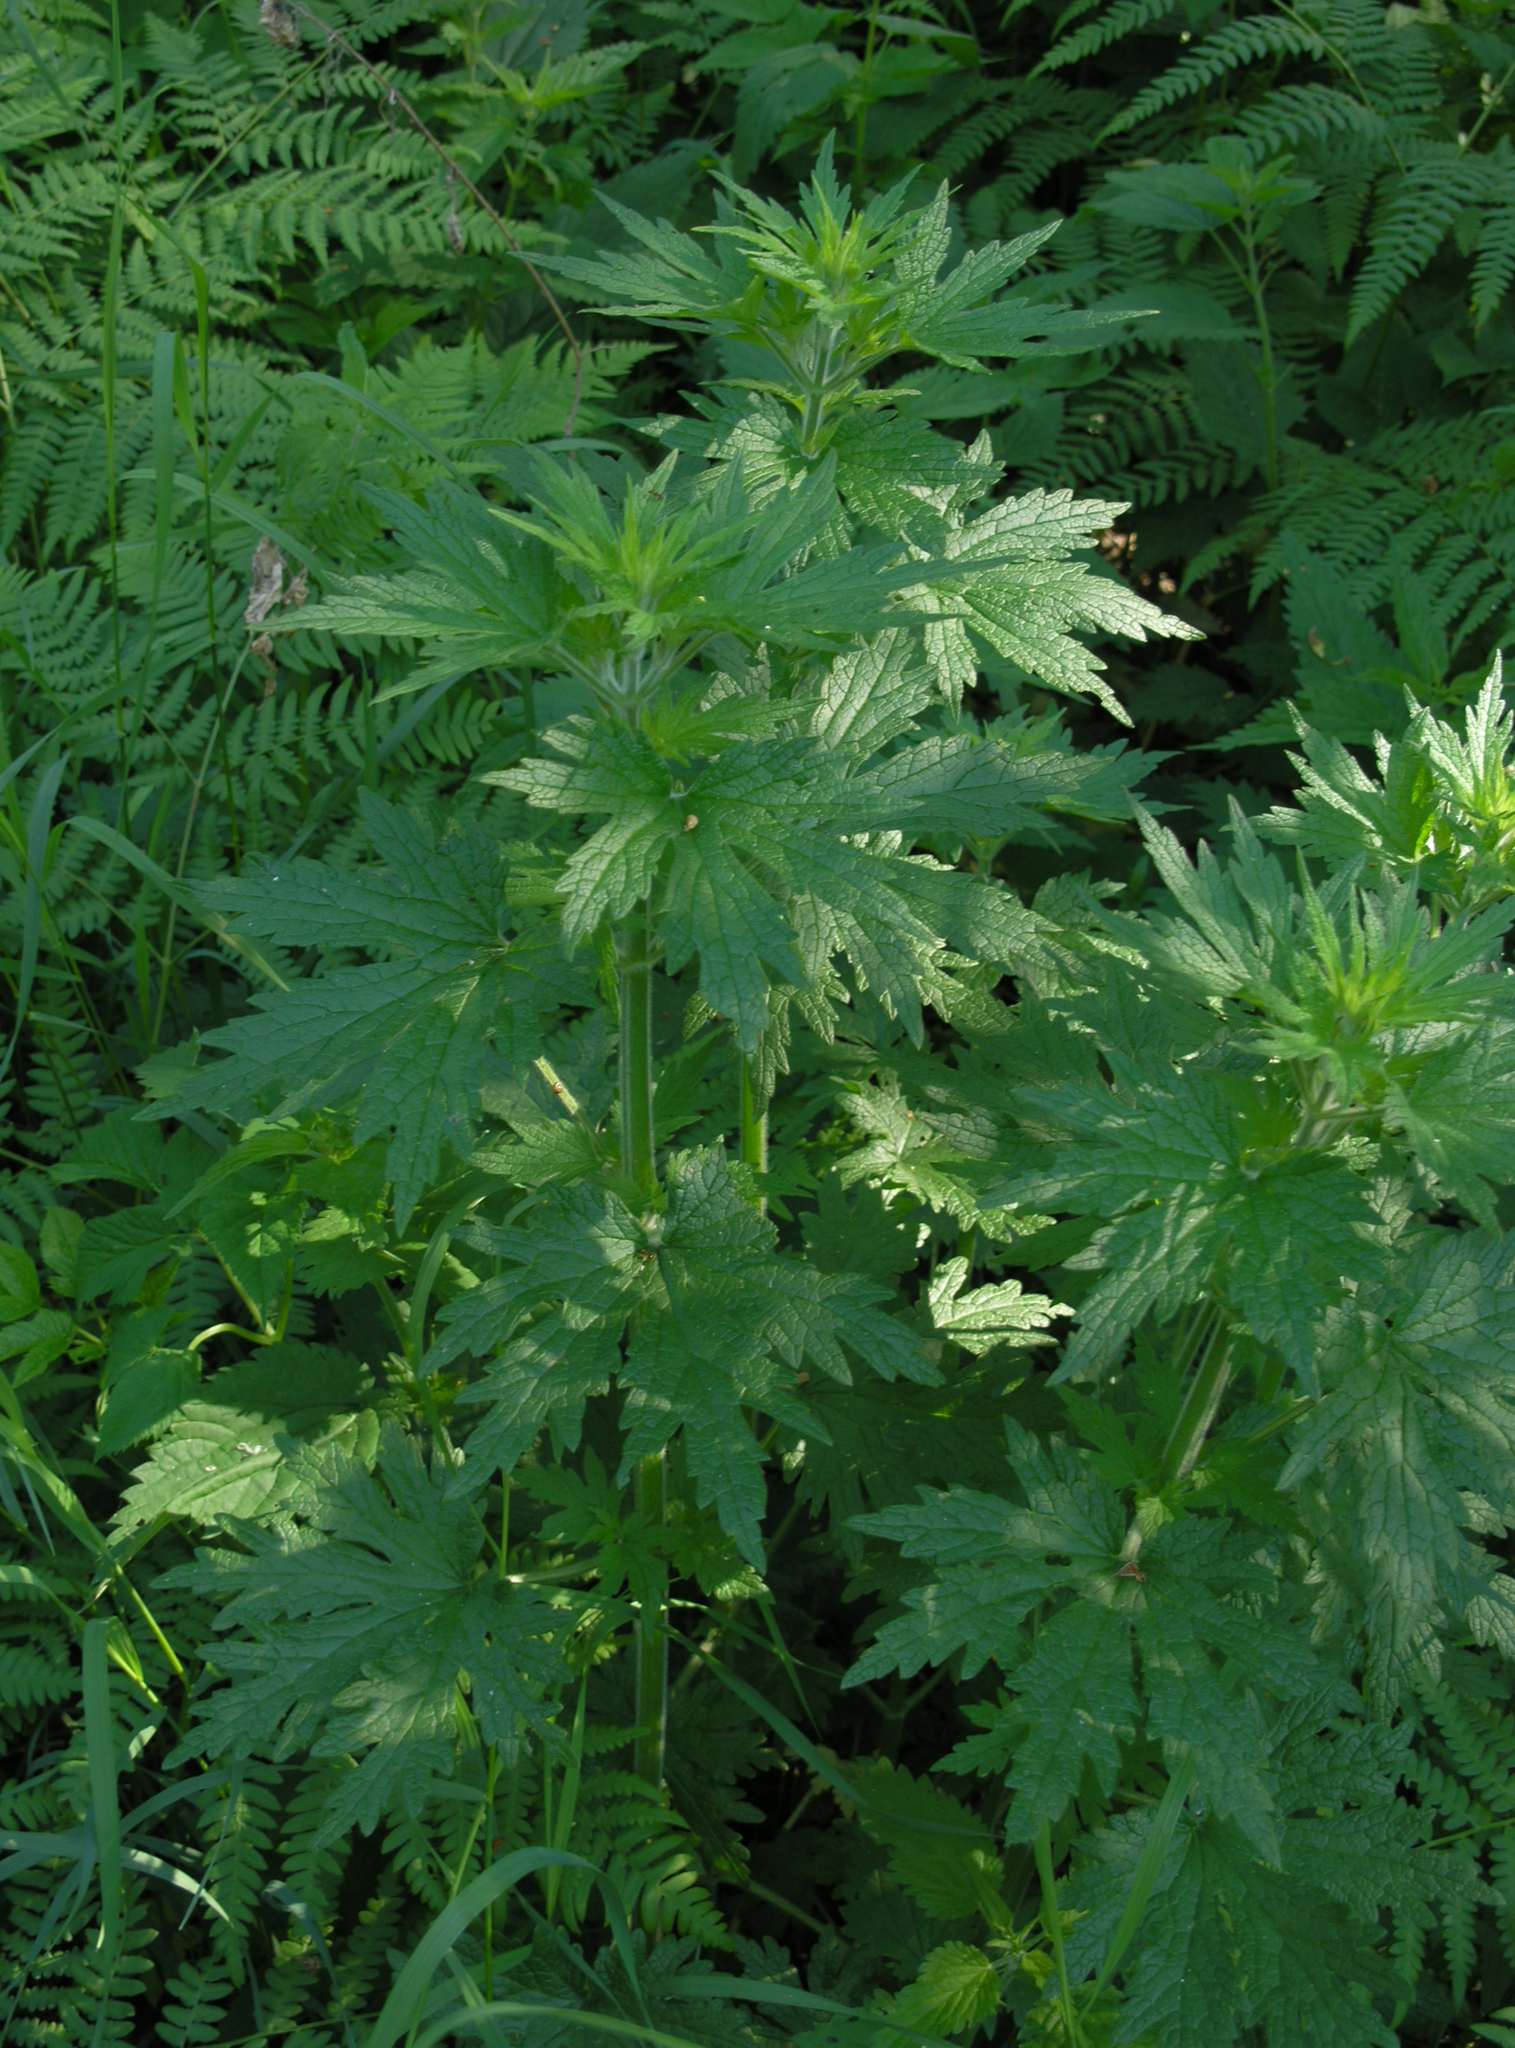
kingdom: Plantae
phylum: Tracheophyta
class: Magnoliopsida
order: Lamiales
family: Lamiaceae
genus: Leonurus
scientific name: Leonurus quinquelobatus
